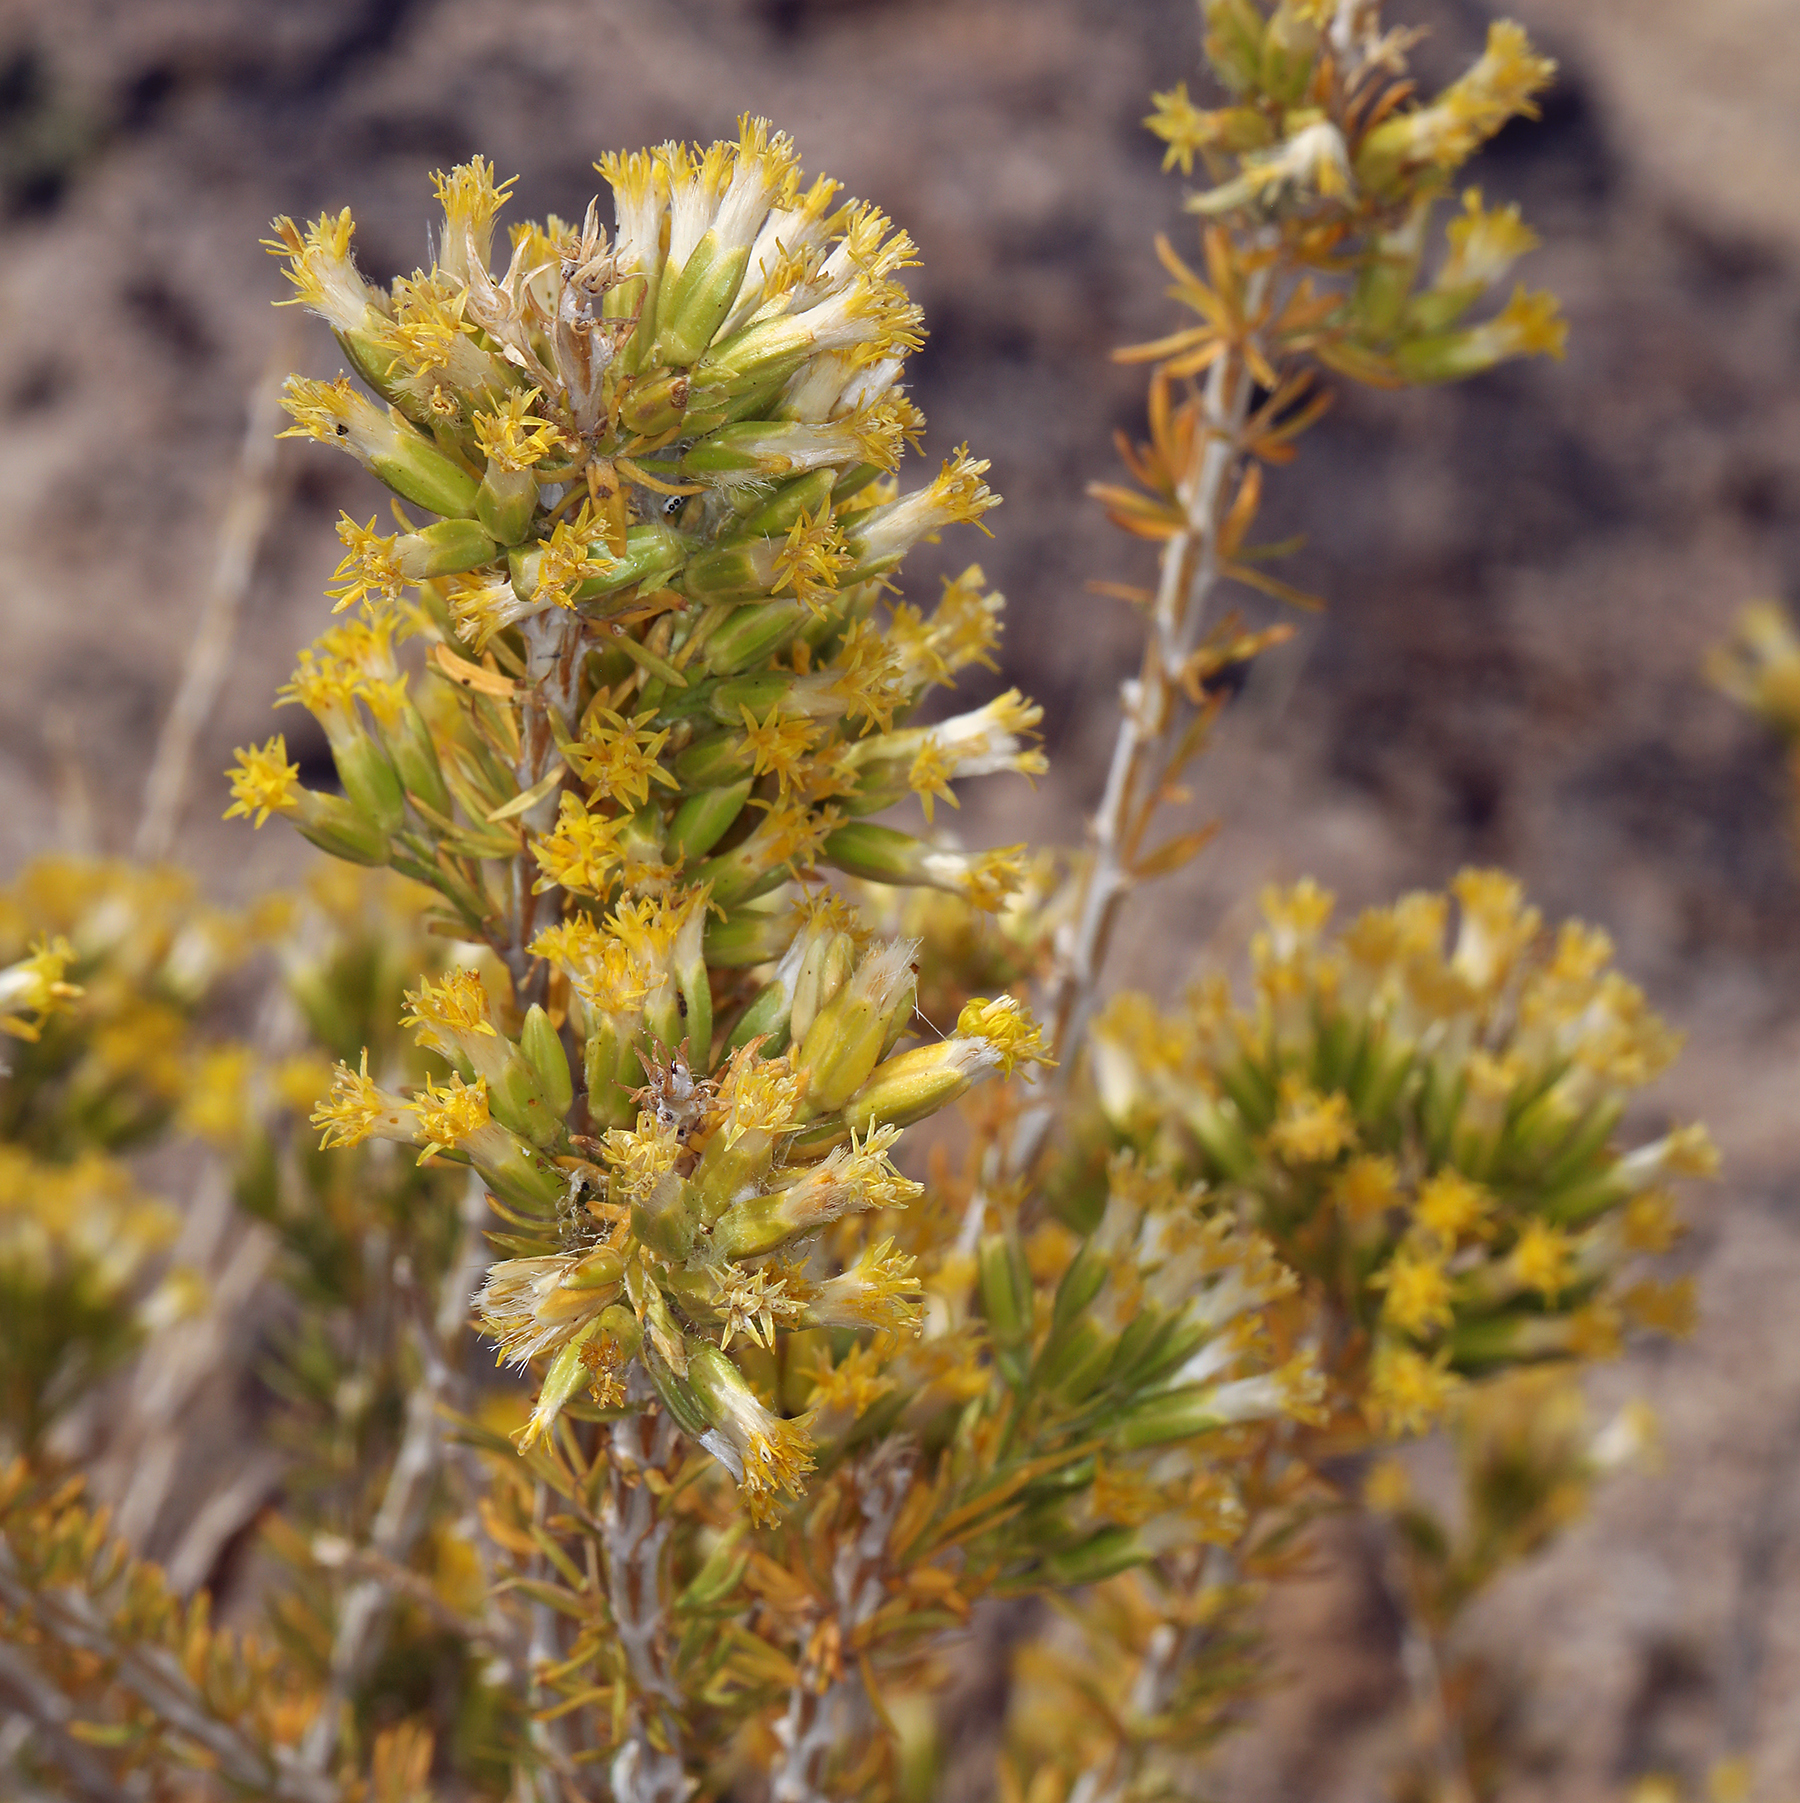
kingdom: Plantae
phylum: Tracheophyta
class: Magnoliopsida
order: Asterales
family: Asteraceae
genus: Tetradymia
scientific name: Tetradymia glabrata
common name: Smooth tetradymia
